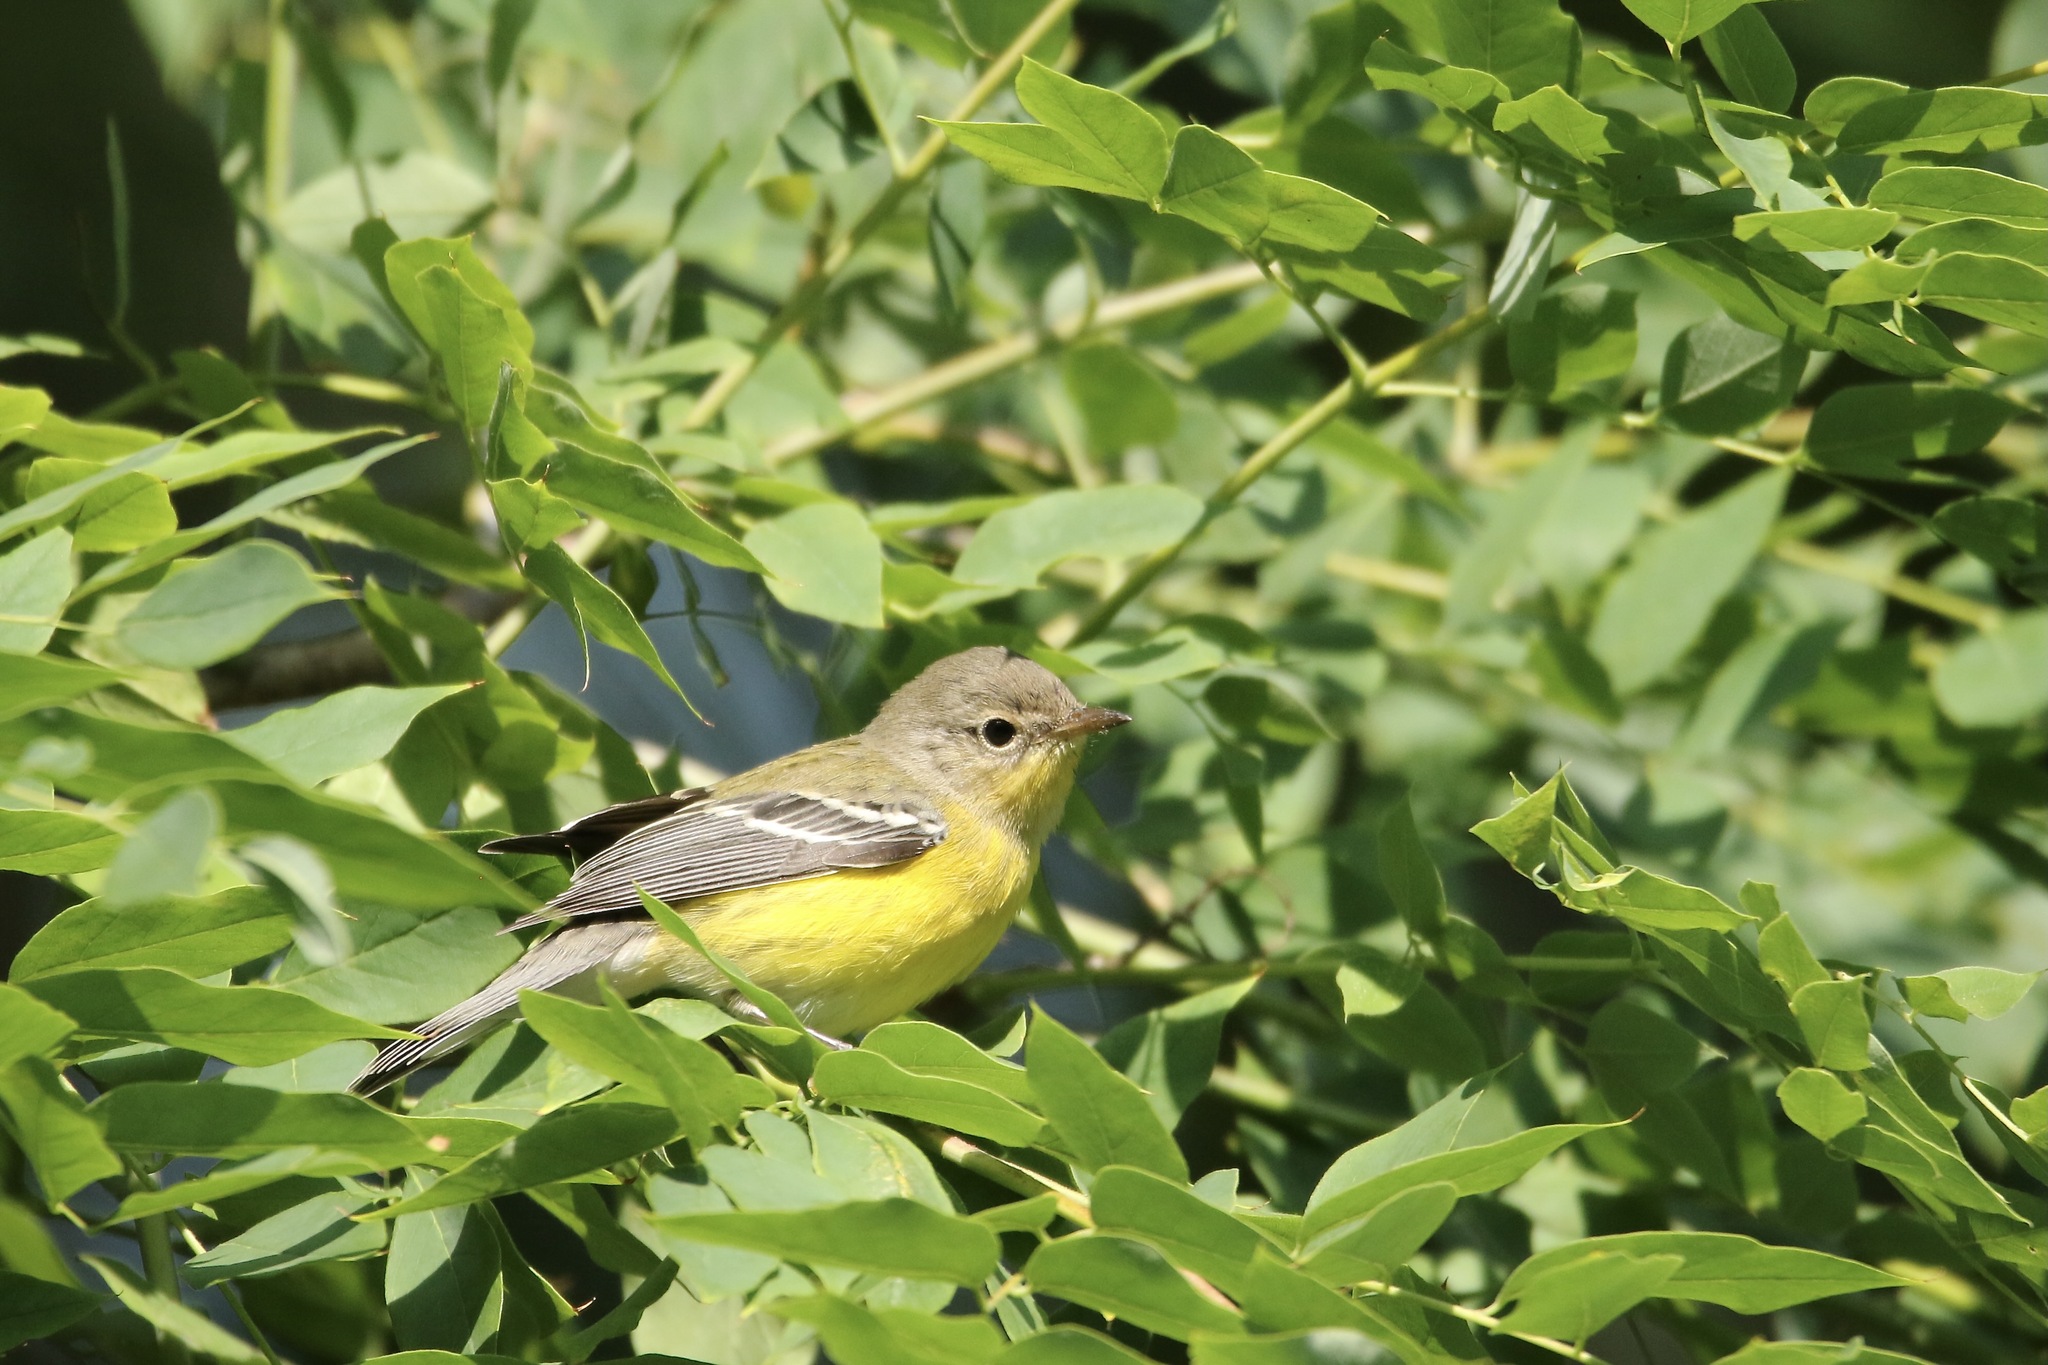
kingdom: Animalia
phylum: Chordata
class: Aves
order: Passeriformes
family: Parulidae
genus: Setophaga
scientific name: Setophaga magnolia
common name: Magnolia warbler
